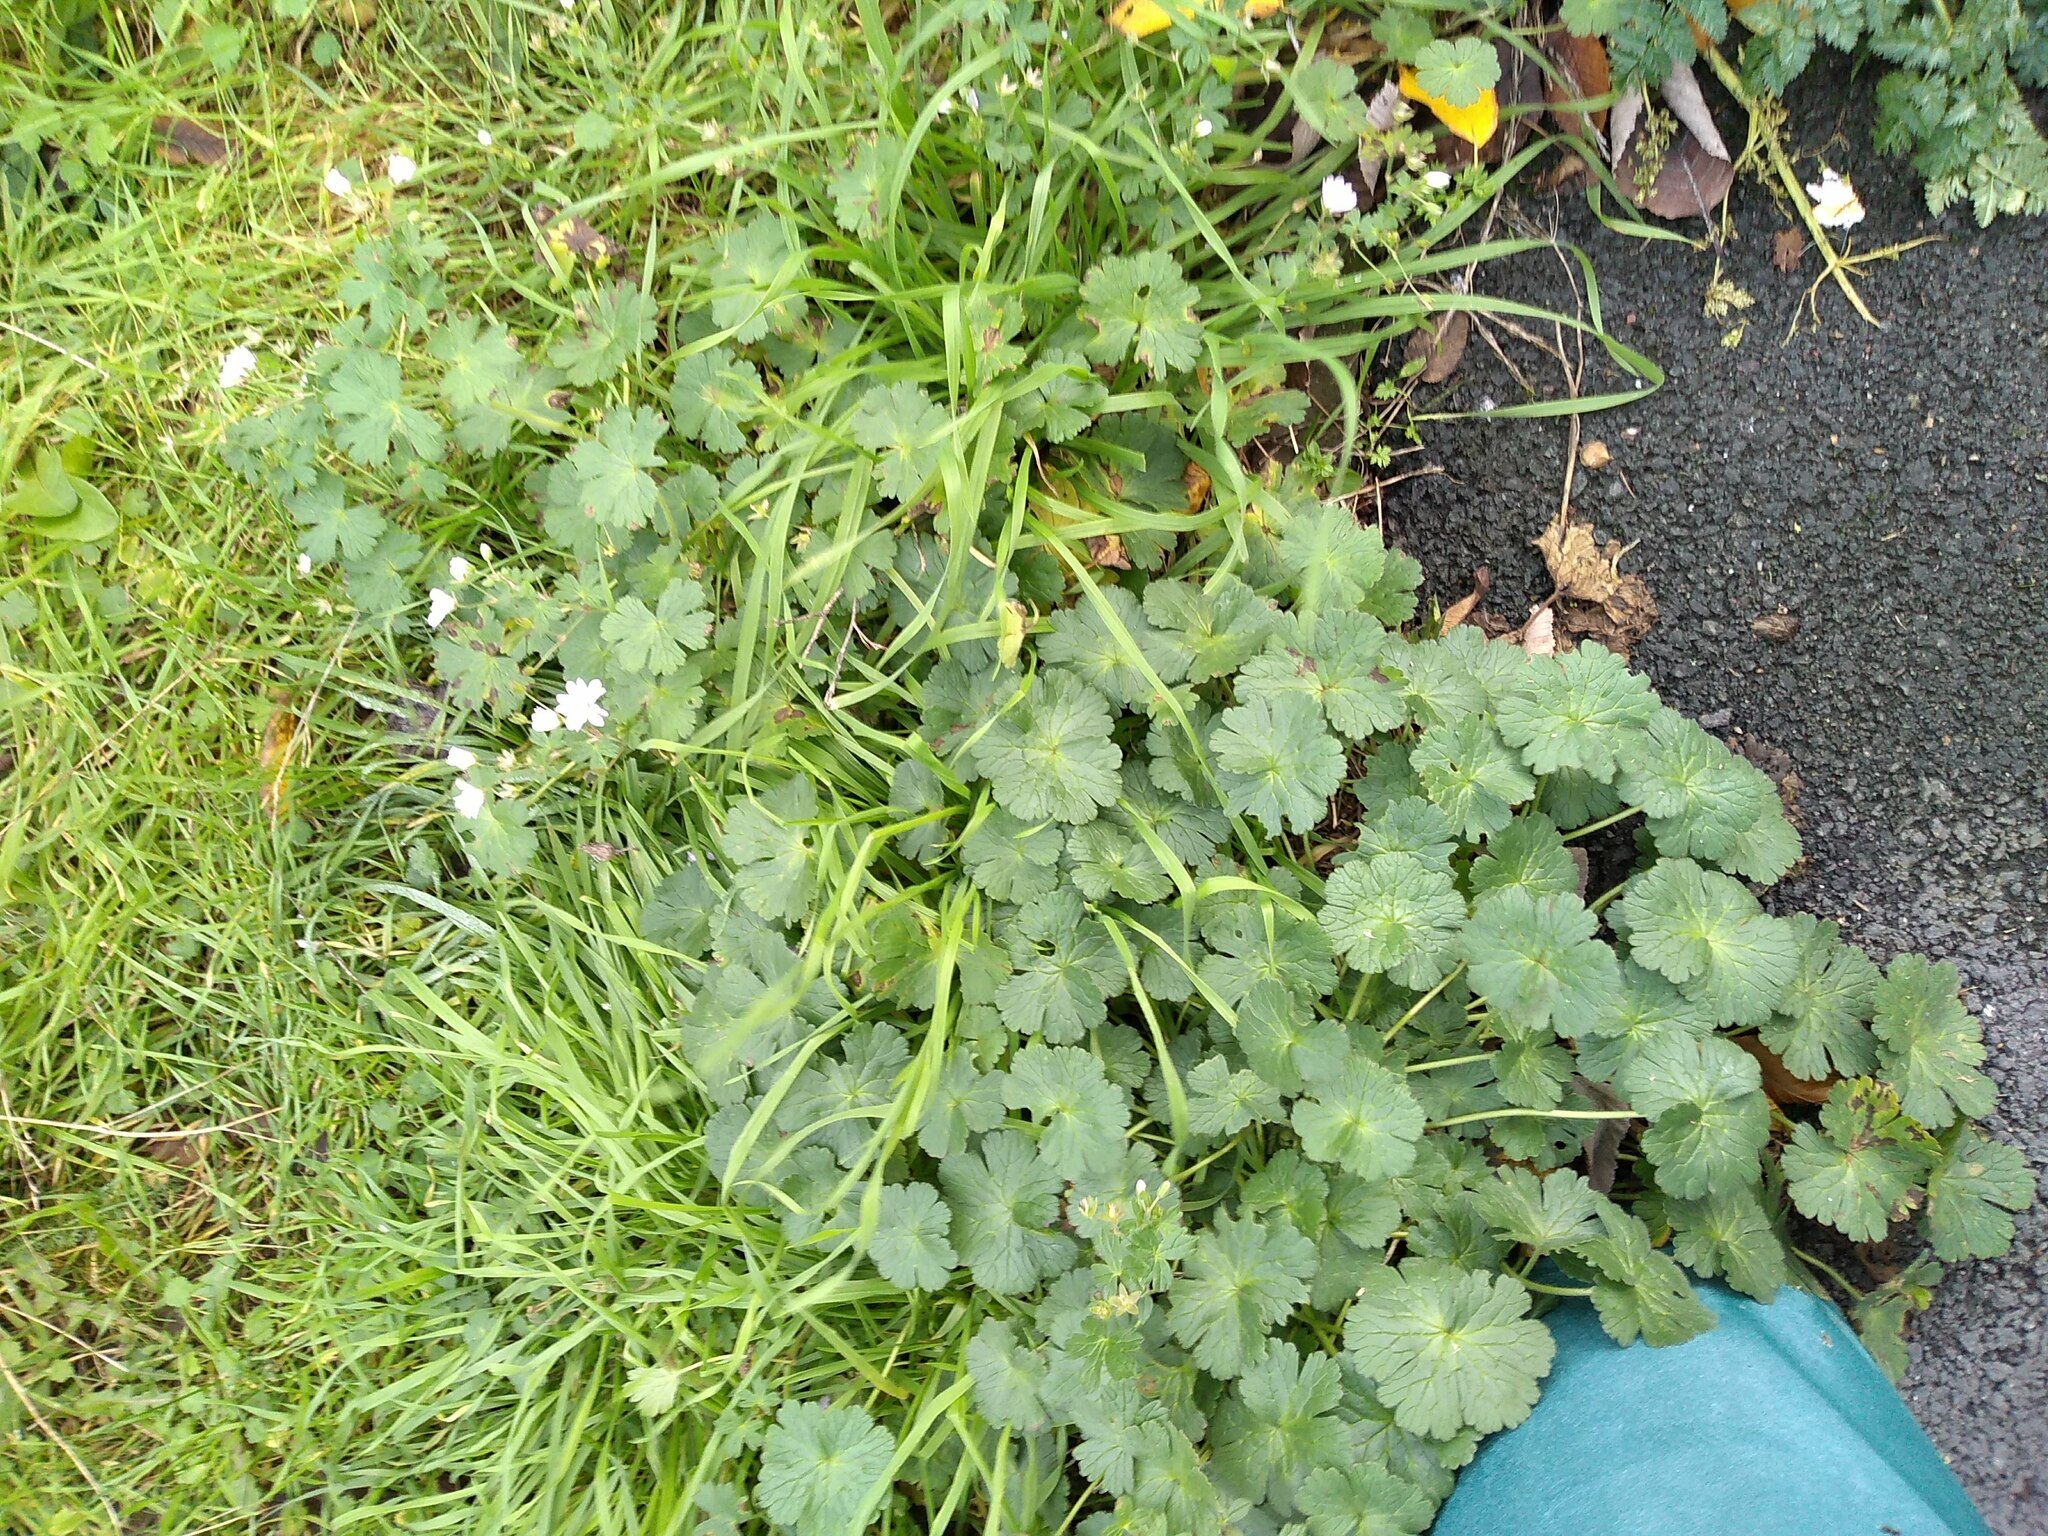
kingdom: Plantae
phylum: Tracheophyta
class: Magnoliopsida
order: Geraniales
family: Geraniaceae
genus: Geranium
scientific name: Geranium pyrenaicum
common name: Hedgerow crane's-bill
